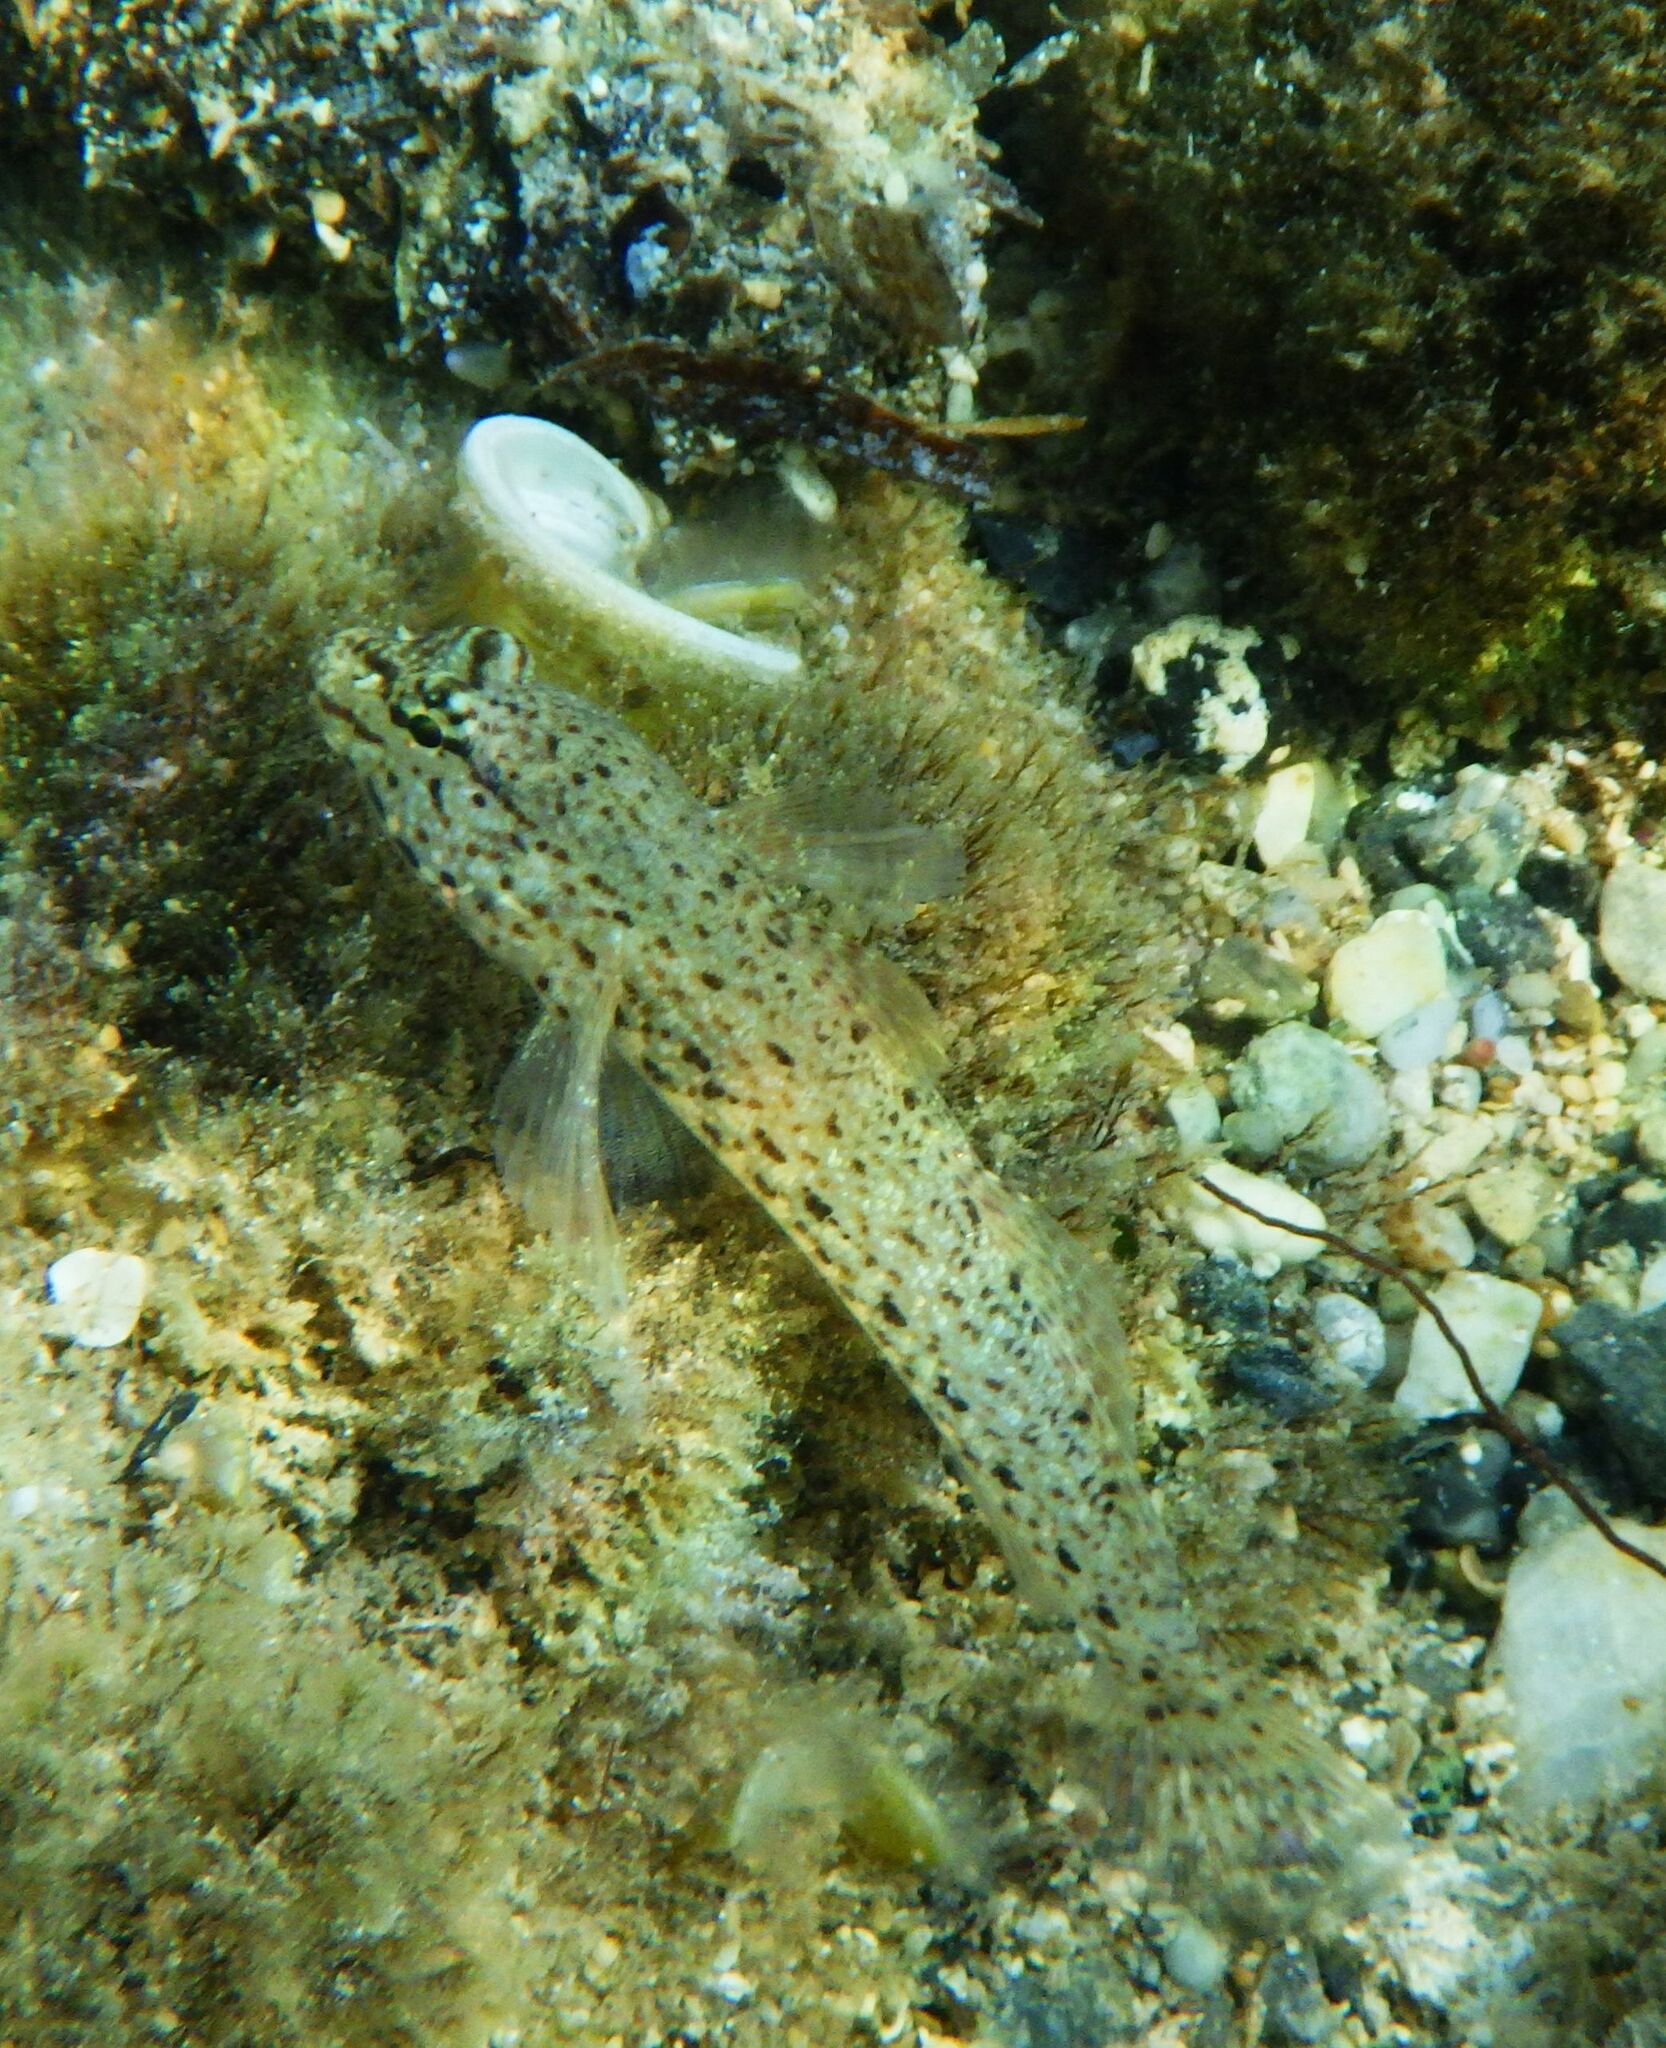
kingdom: Animalia
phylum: Chordata
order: Perciformes
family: Gobiidae
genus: Gobius
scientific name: Gobius incognitus
